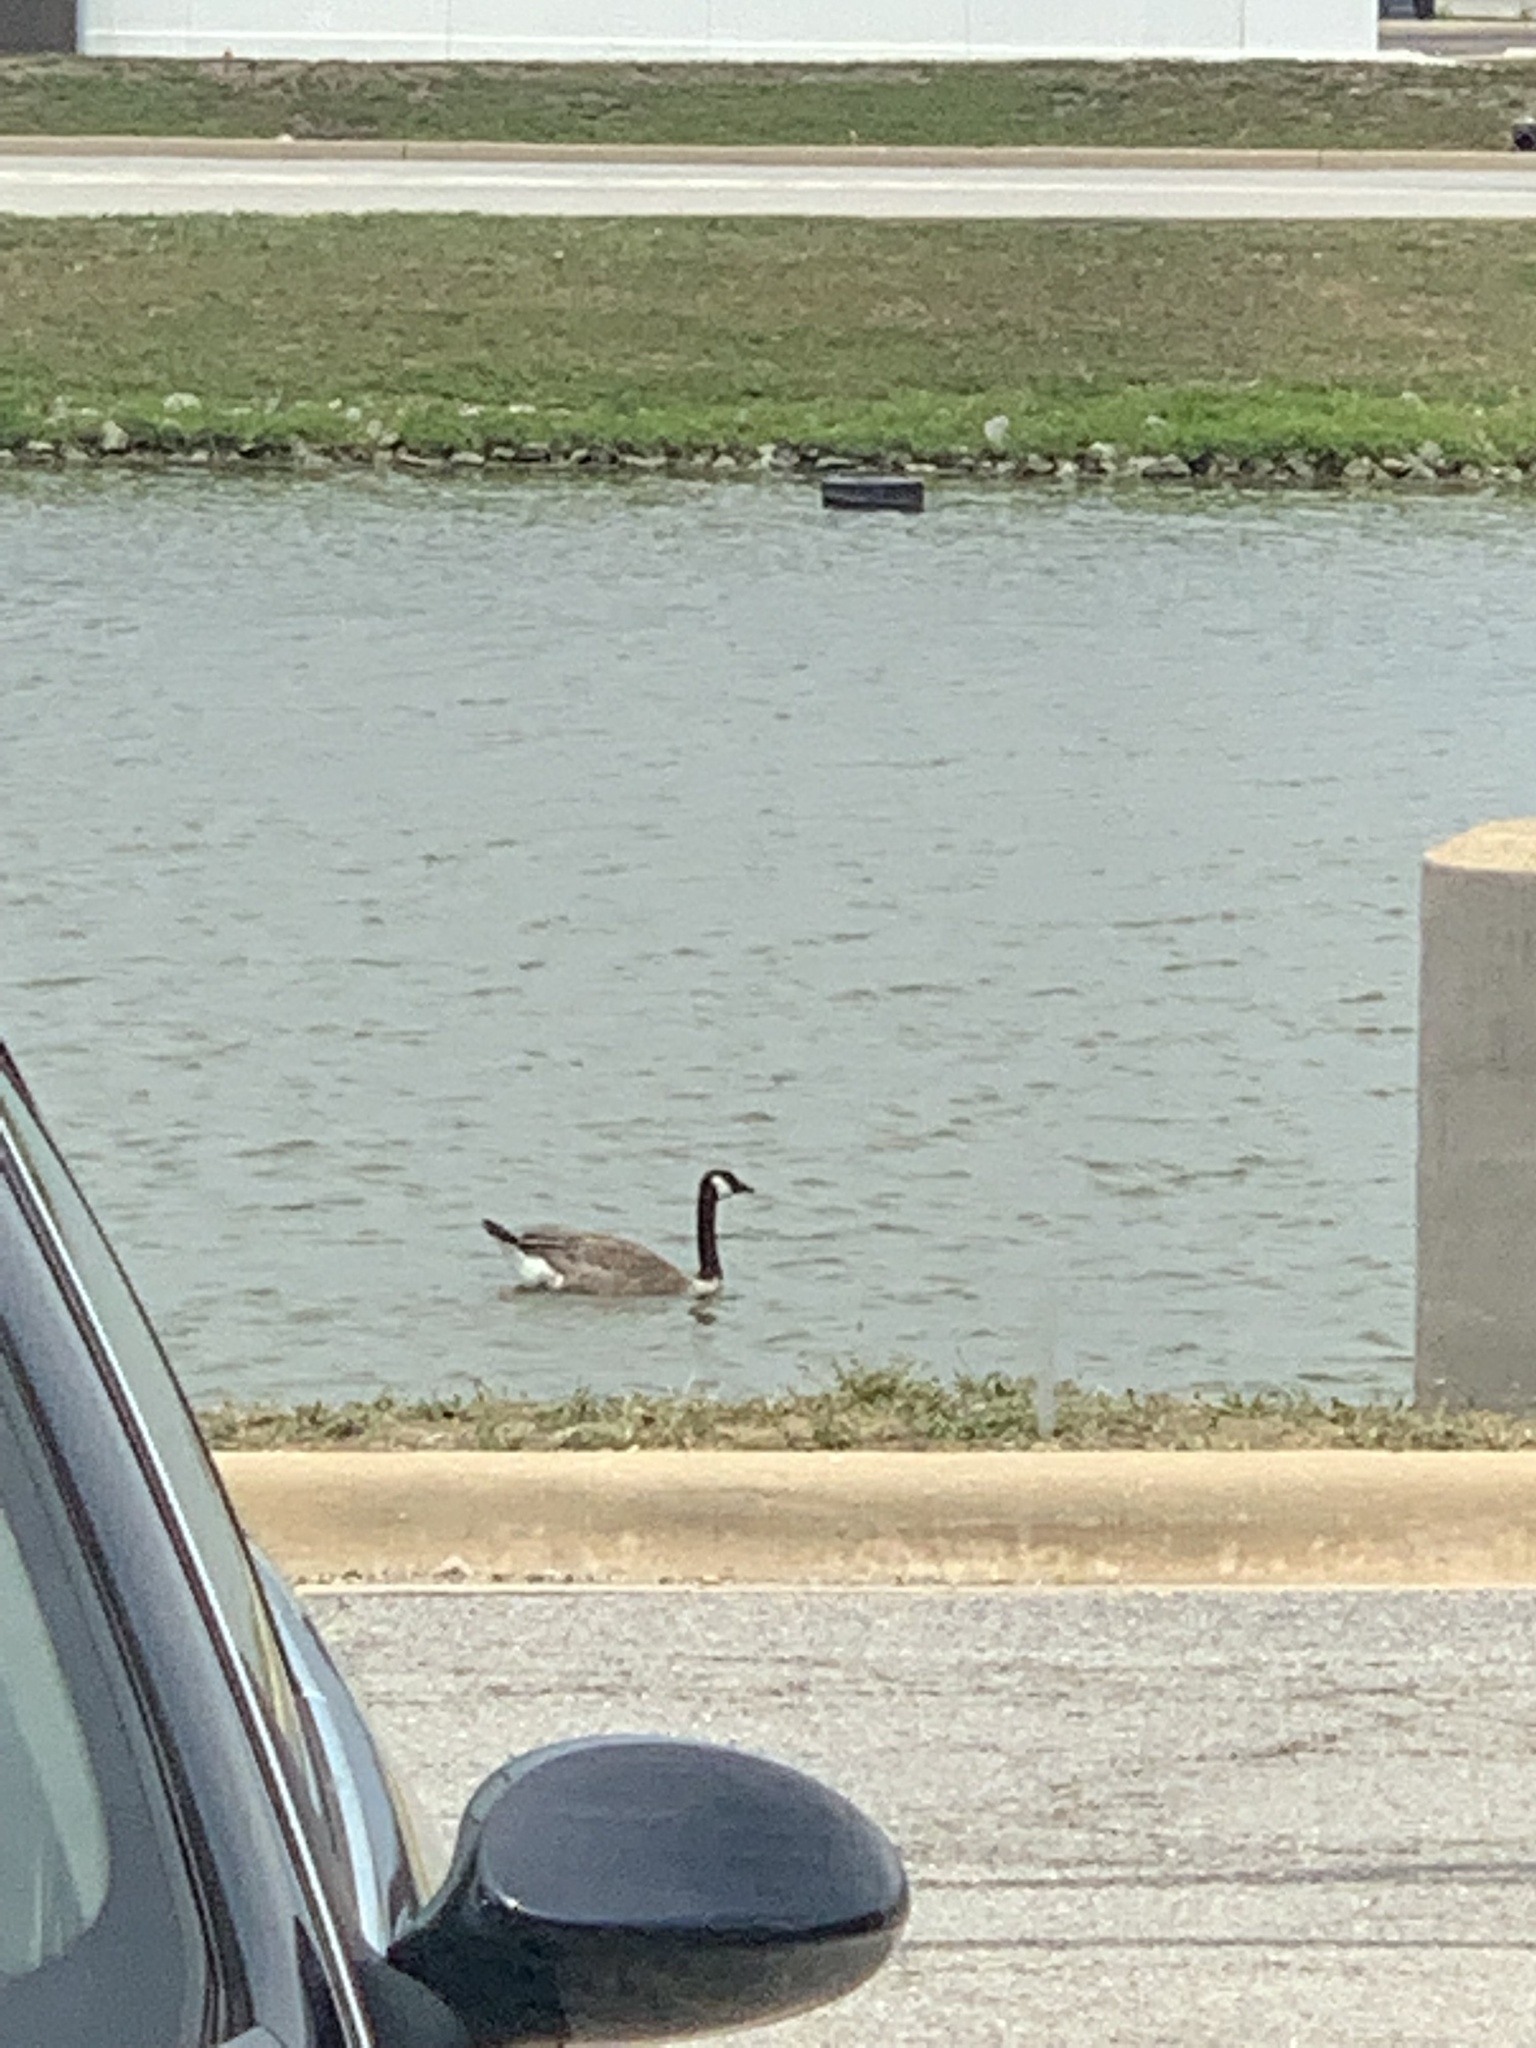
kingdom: Animalia
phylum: Chordata
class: Aves
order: Anseriformes
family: Anatidae
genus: Branta
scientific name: Branta canadensis
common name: Canada goose
